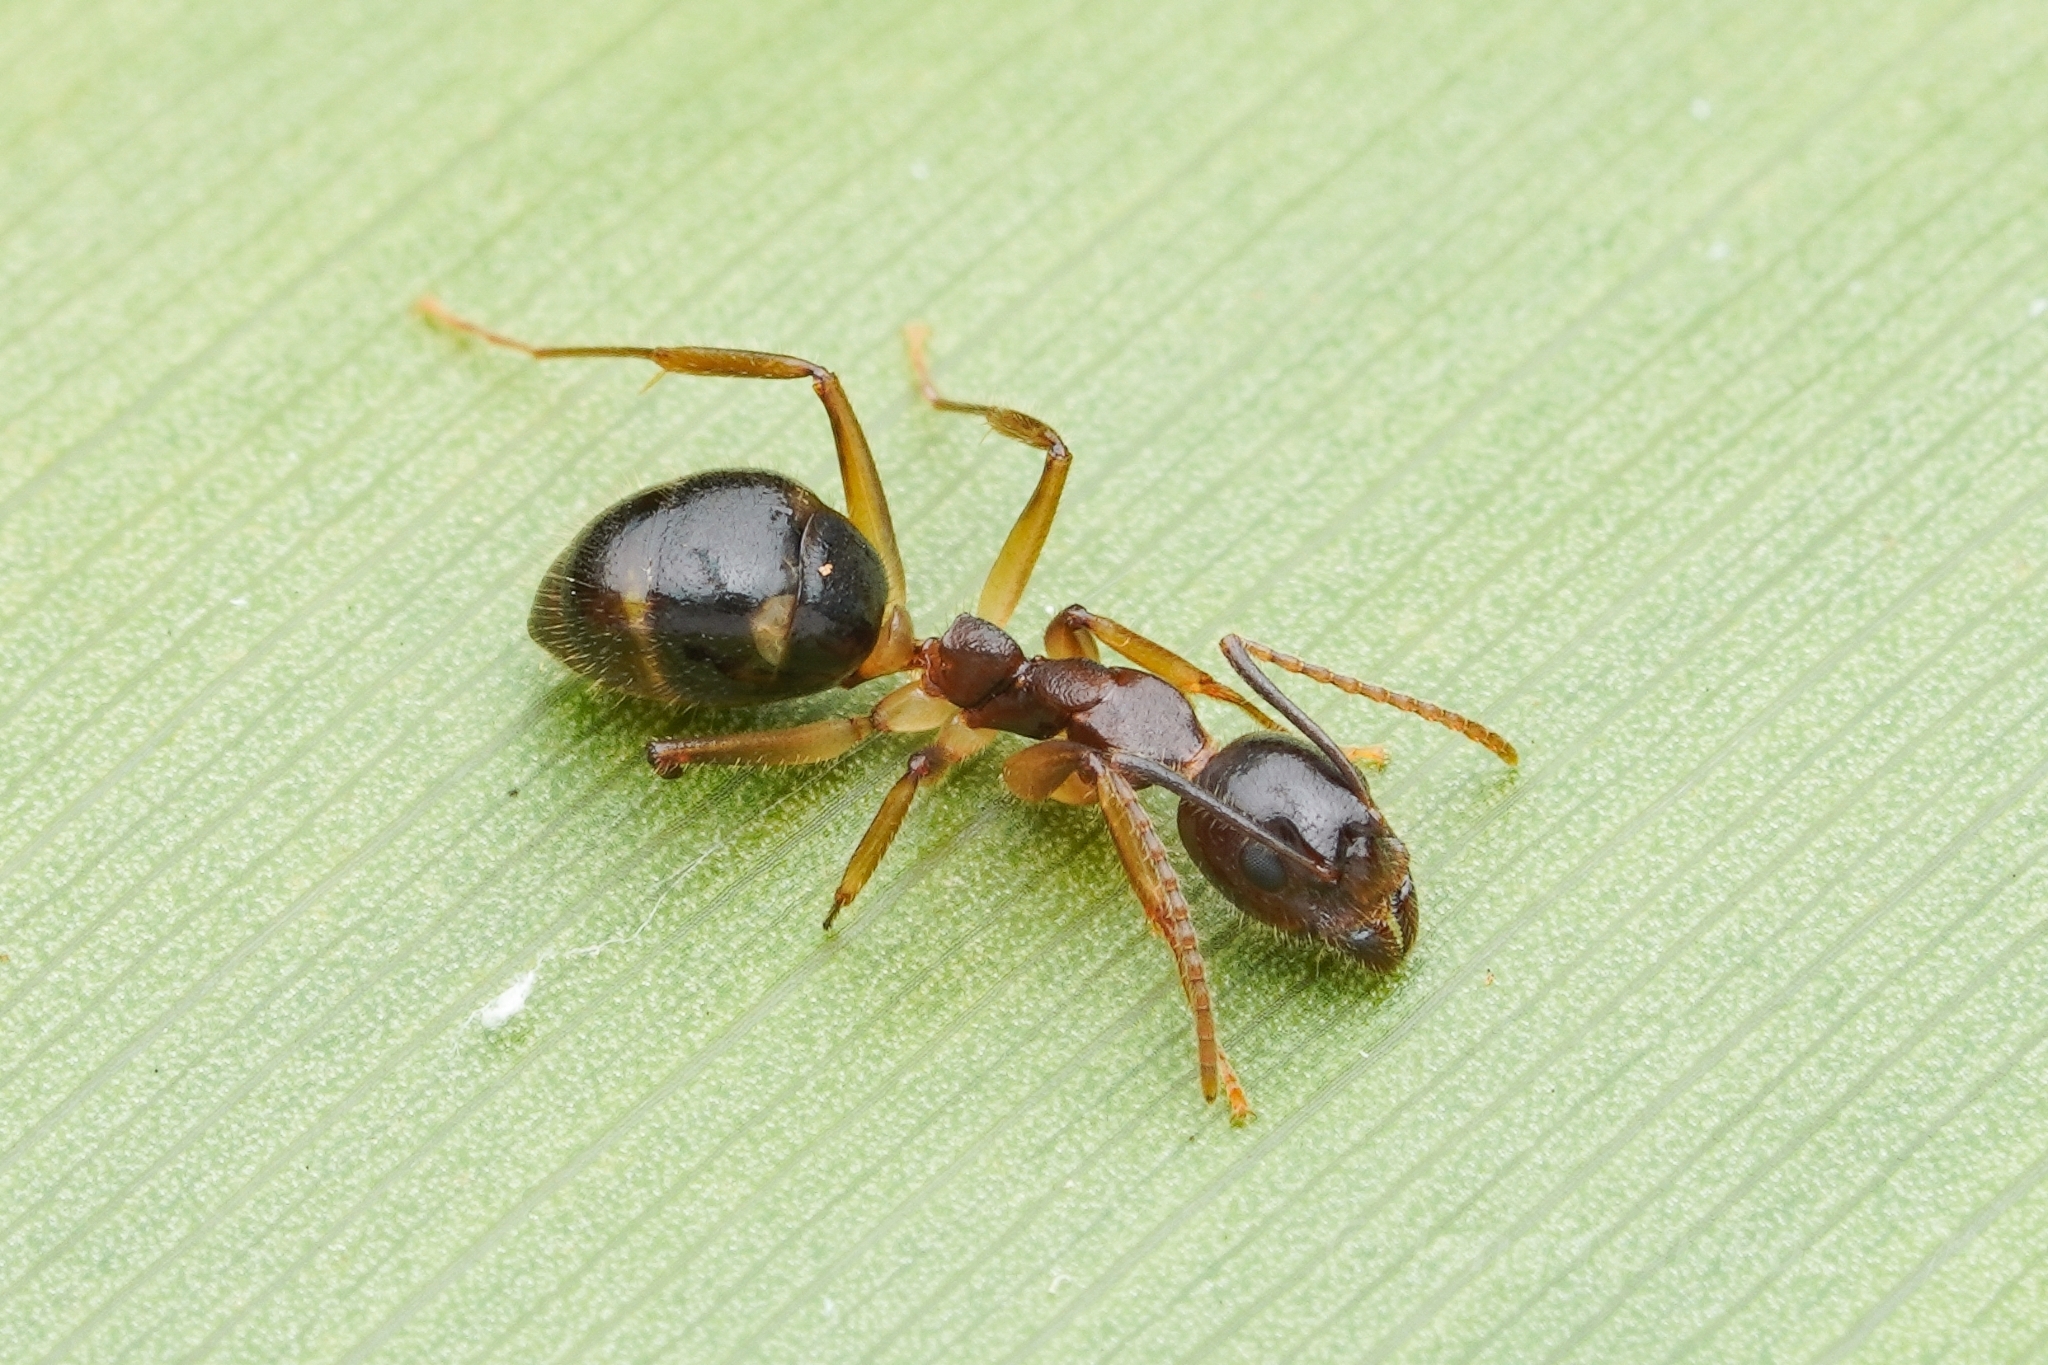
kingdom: Animalia
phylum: Arthropoda
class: Insecta
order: Hymenoptera
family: Formicidae
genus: Dolichoderus
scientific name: Dolichoderus diversus
